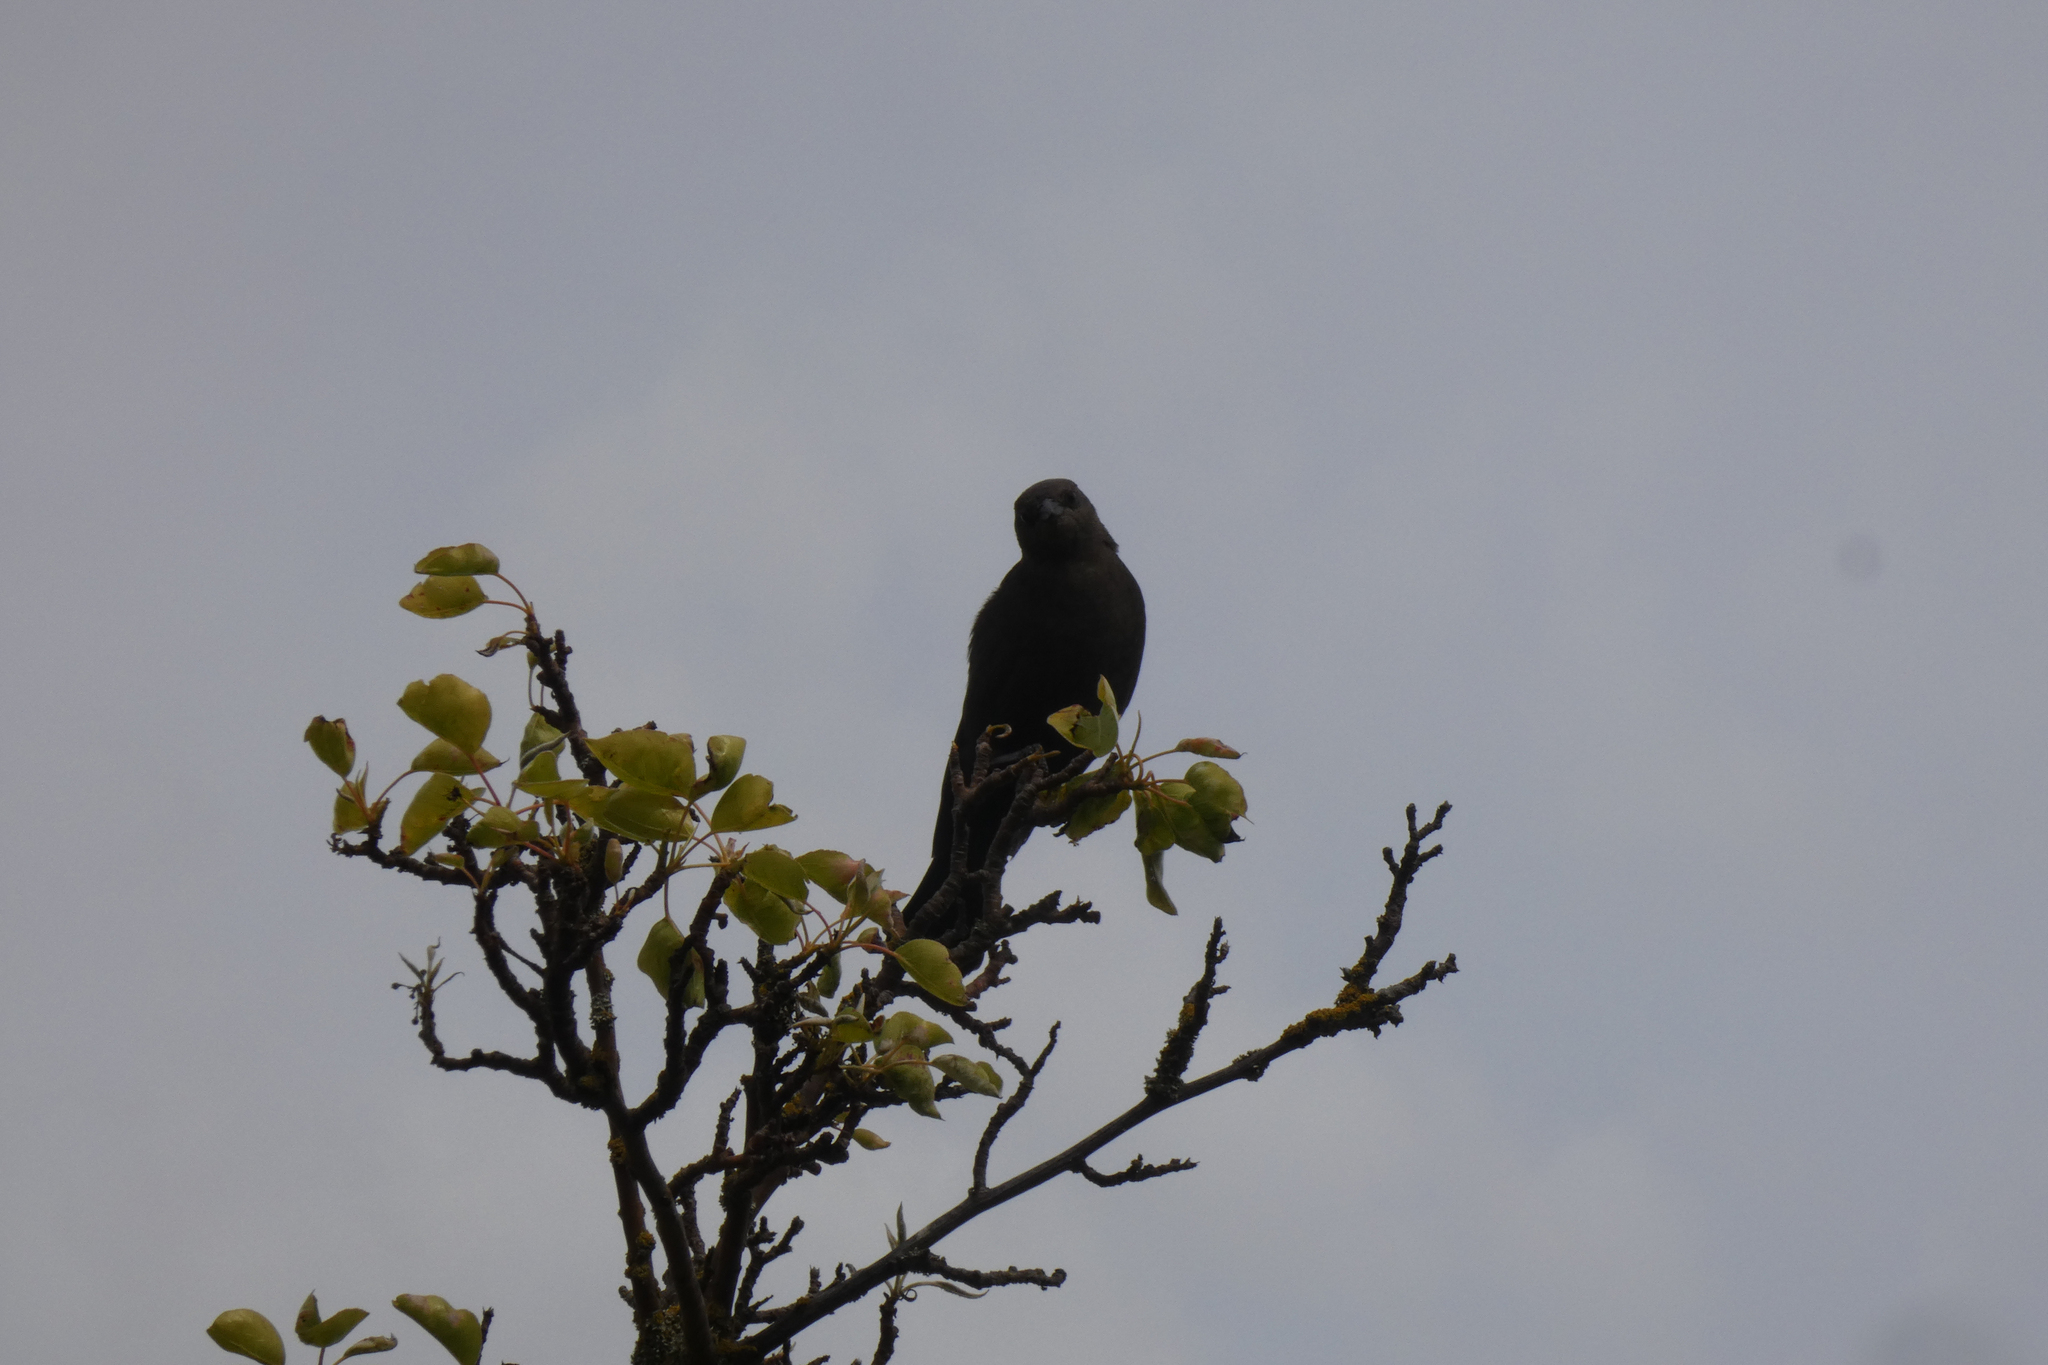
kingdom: Animalia
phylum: Chordata
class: Aves
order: Passeriformes
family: Icteridae
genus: Euphagus
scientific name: Euphagus cyanocephalus
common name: Brewer's blackbird
